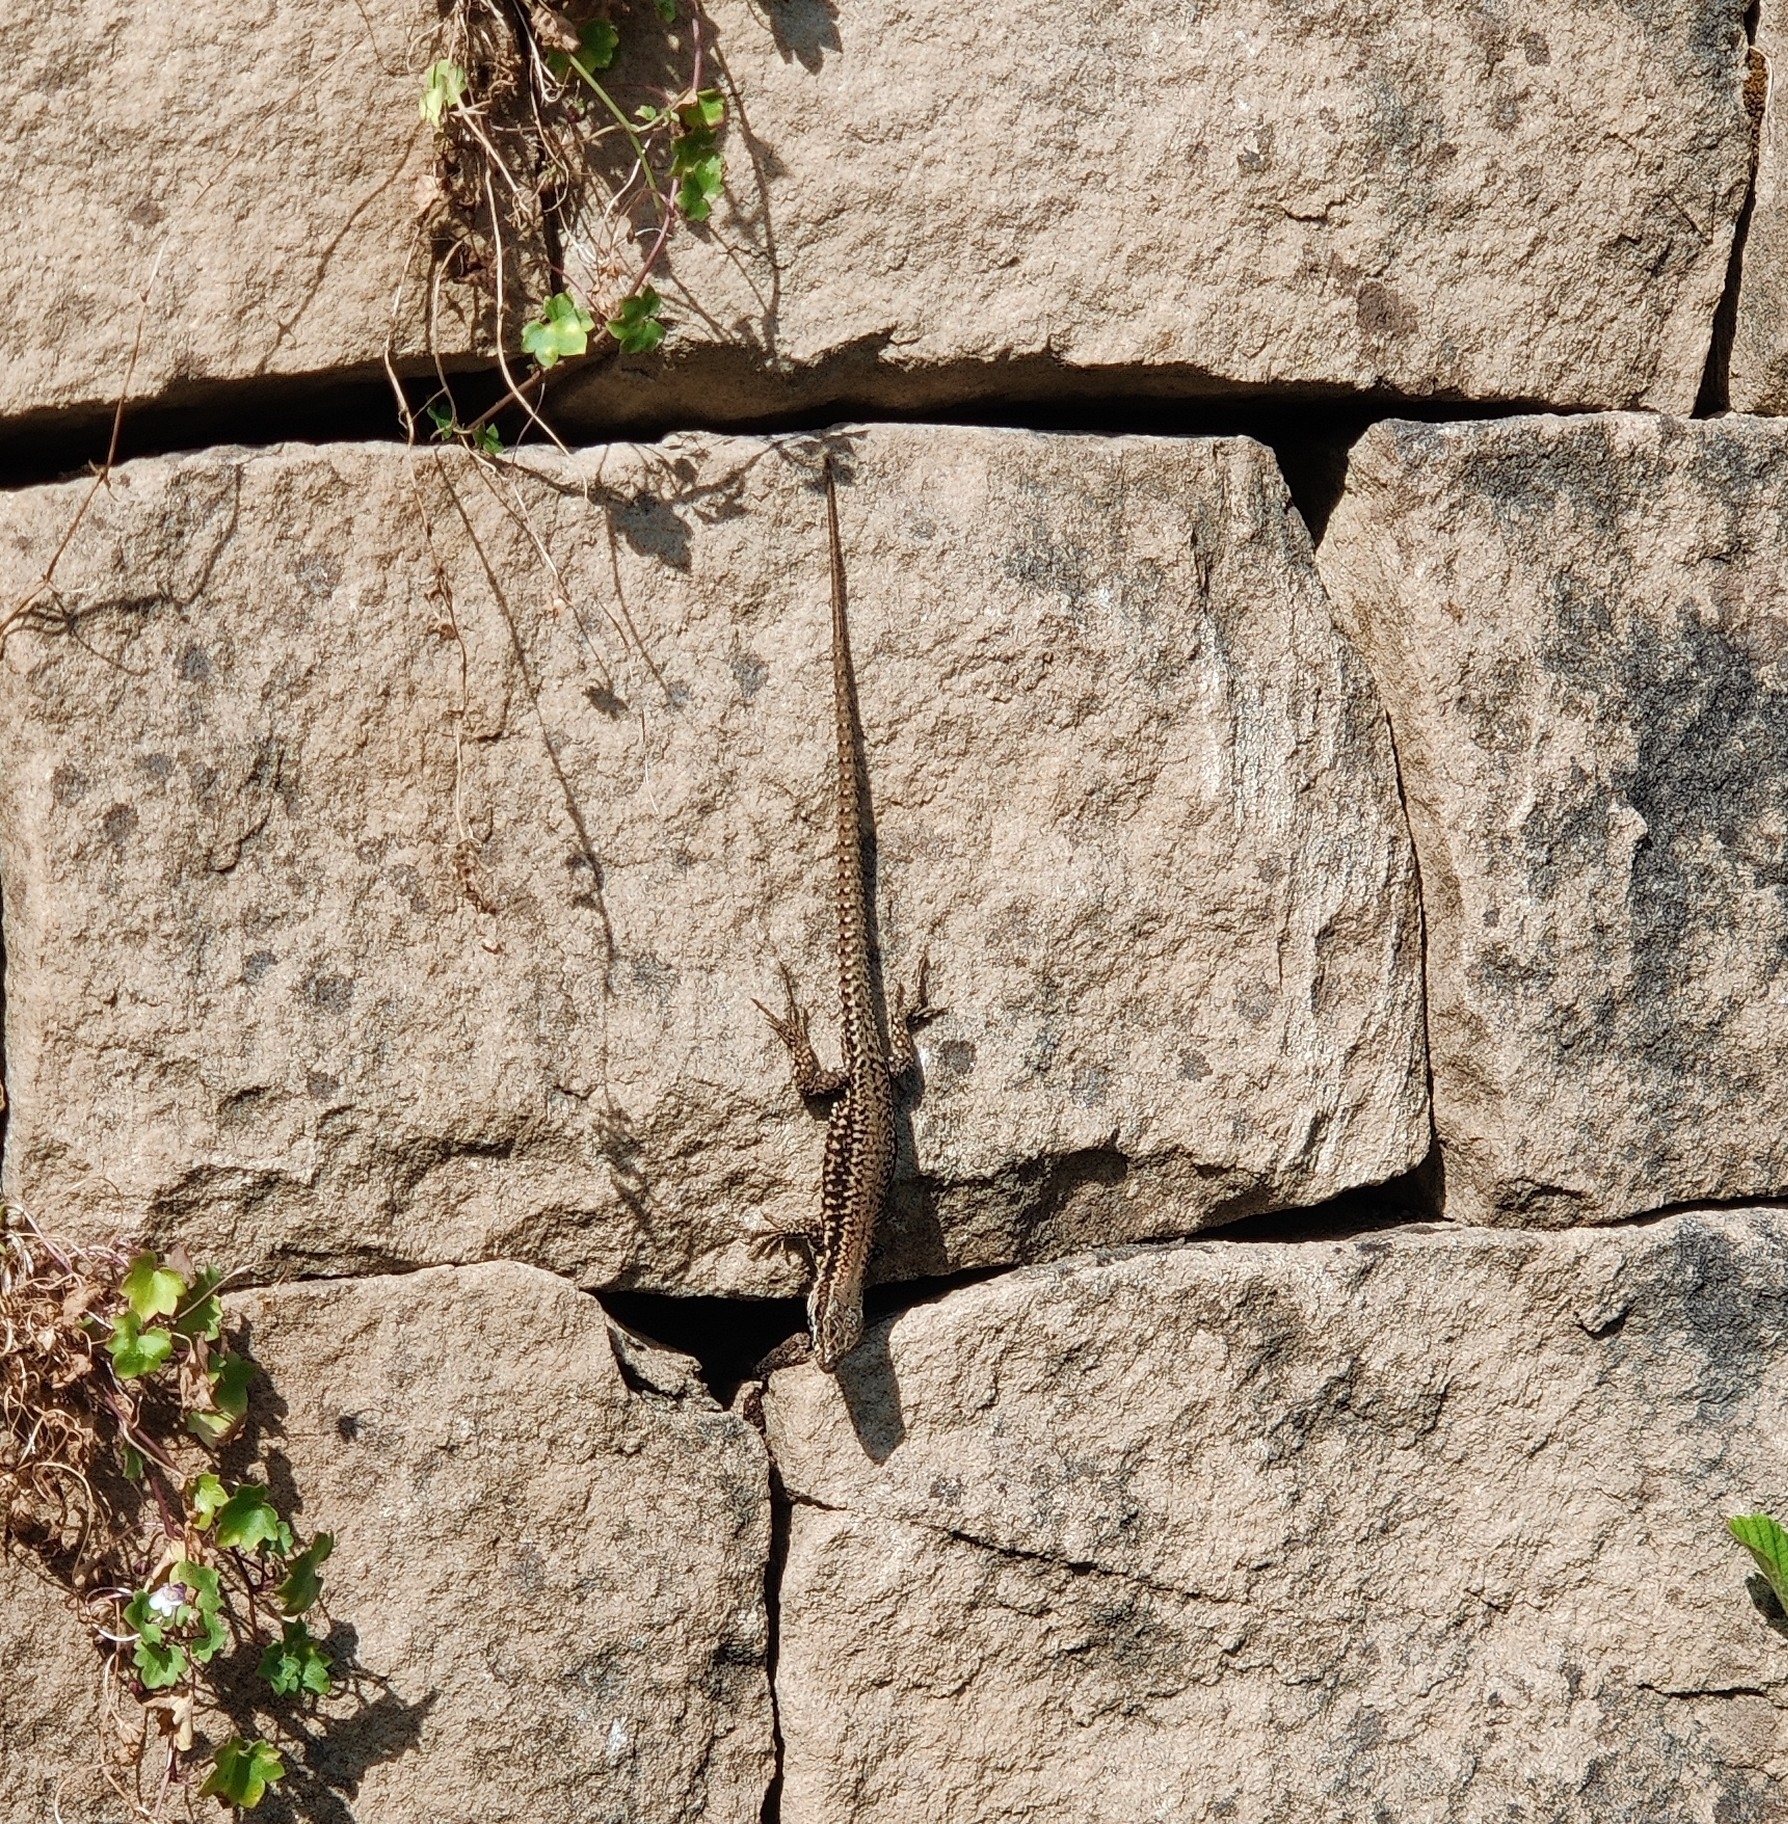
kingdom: Animalia
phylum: Chordata
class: Squamata
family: Lacertidae
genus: Podarcis
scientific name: Podarcis muralis
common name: Common wall lizard
